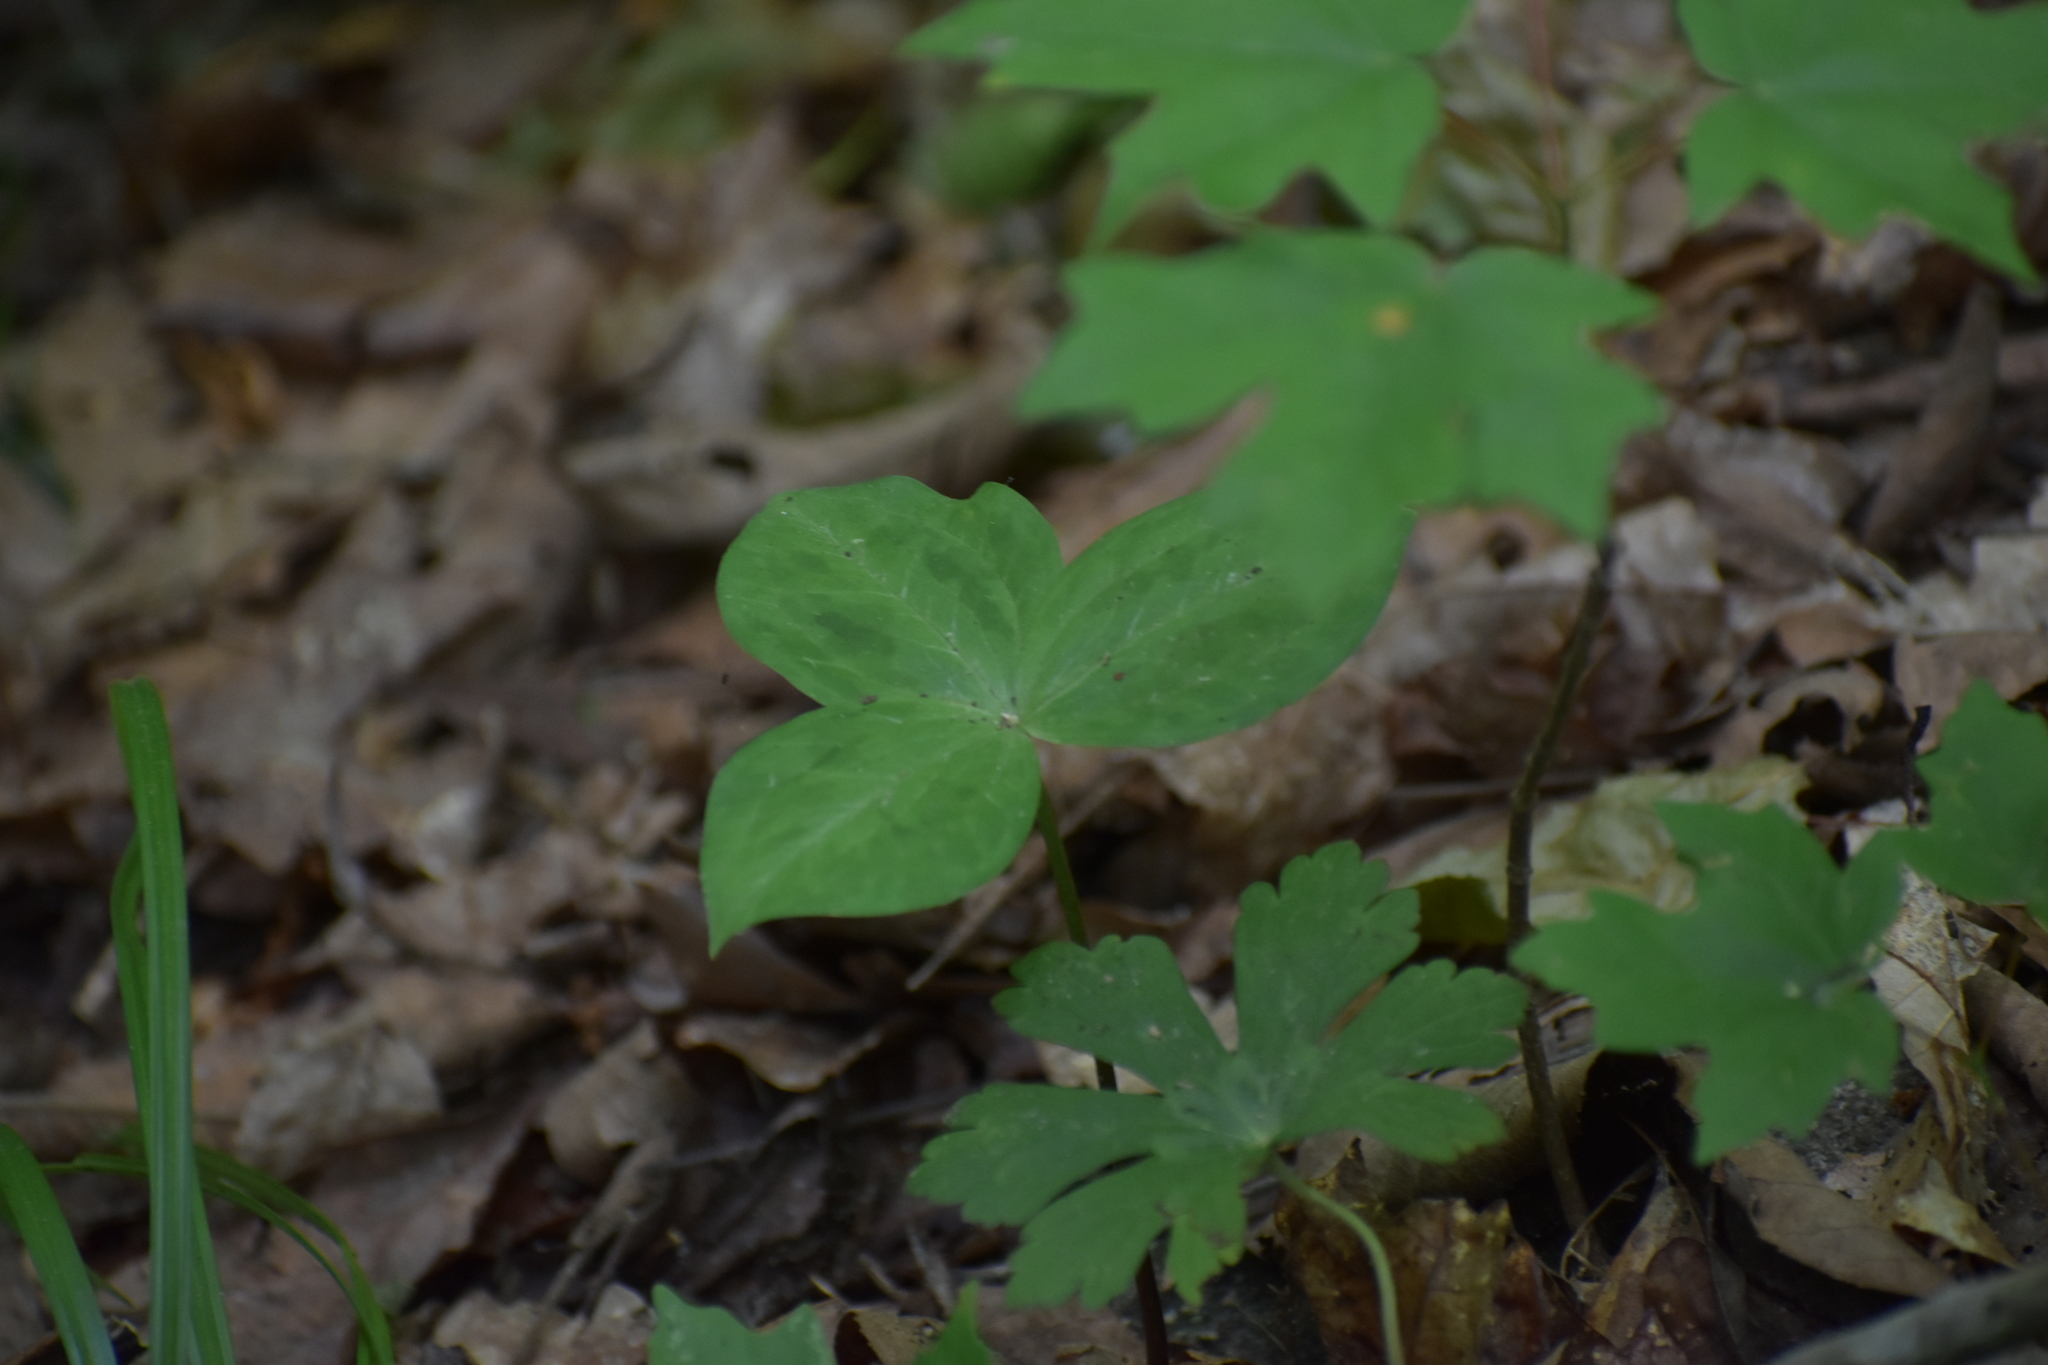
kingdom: Plantae
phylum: Tracheophyta
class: Liliopsida
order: Liliales
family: Melanthiaceae
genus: Trillium
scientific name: Trillium discolor
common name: Faded trillium
